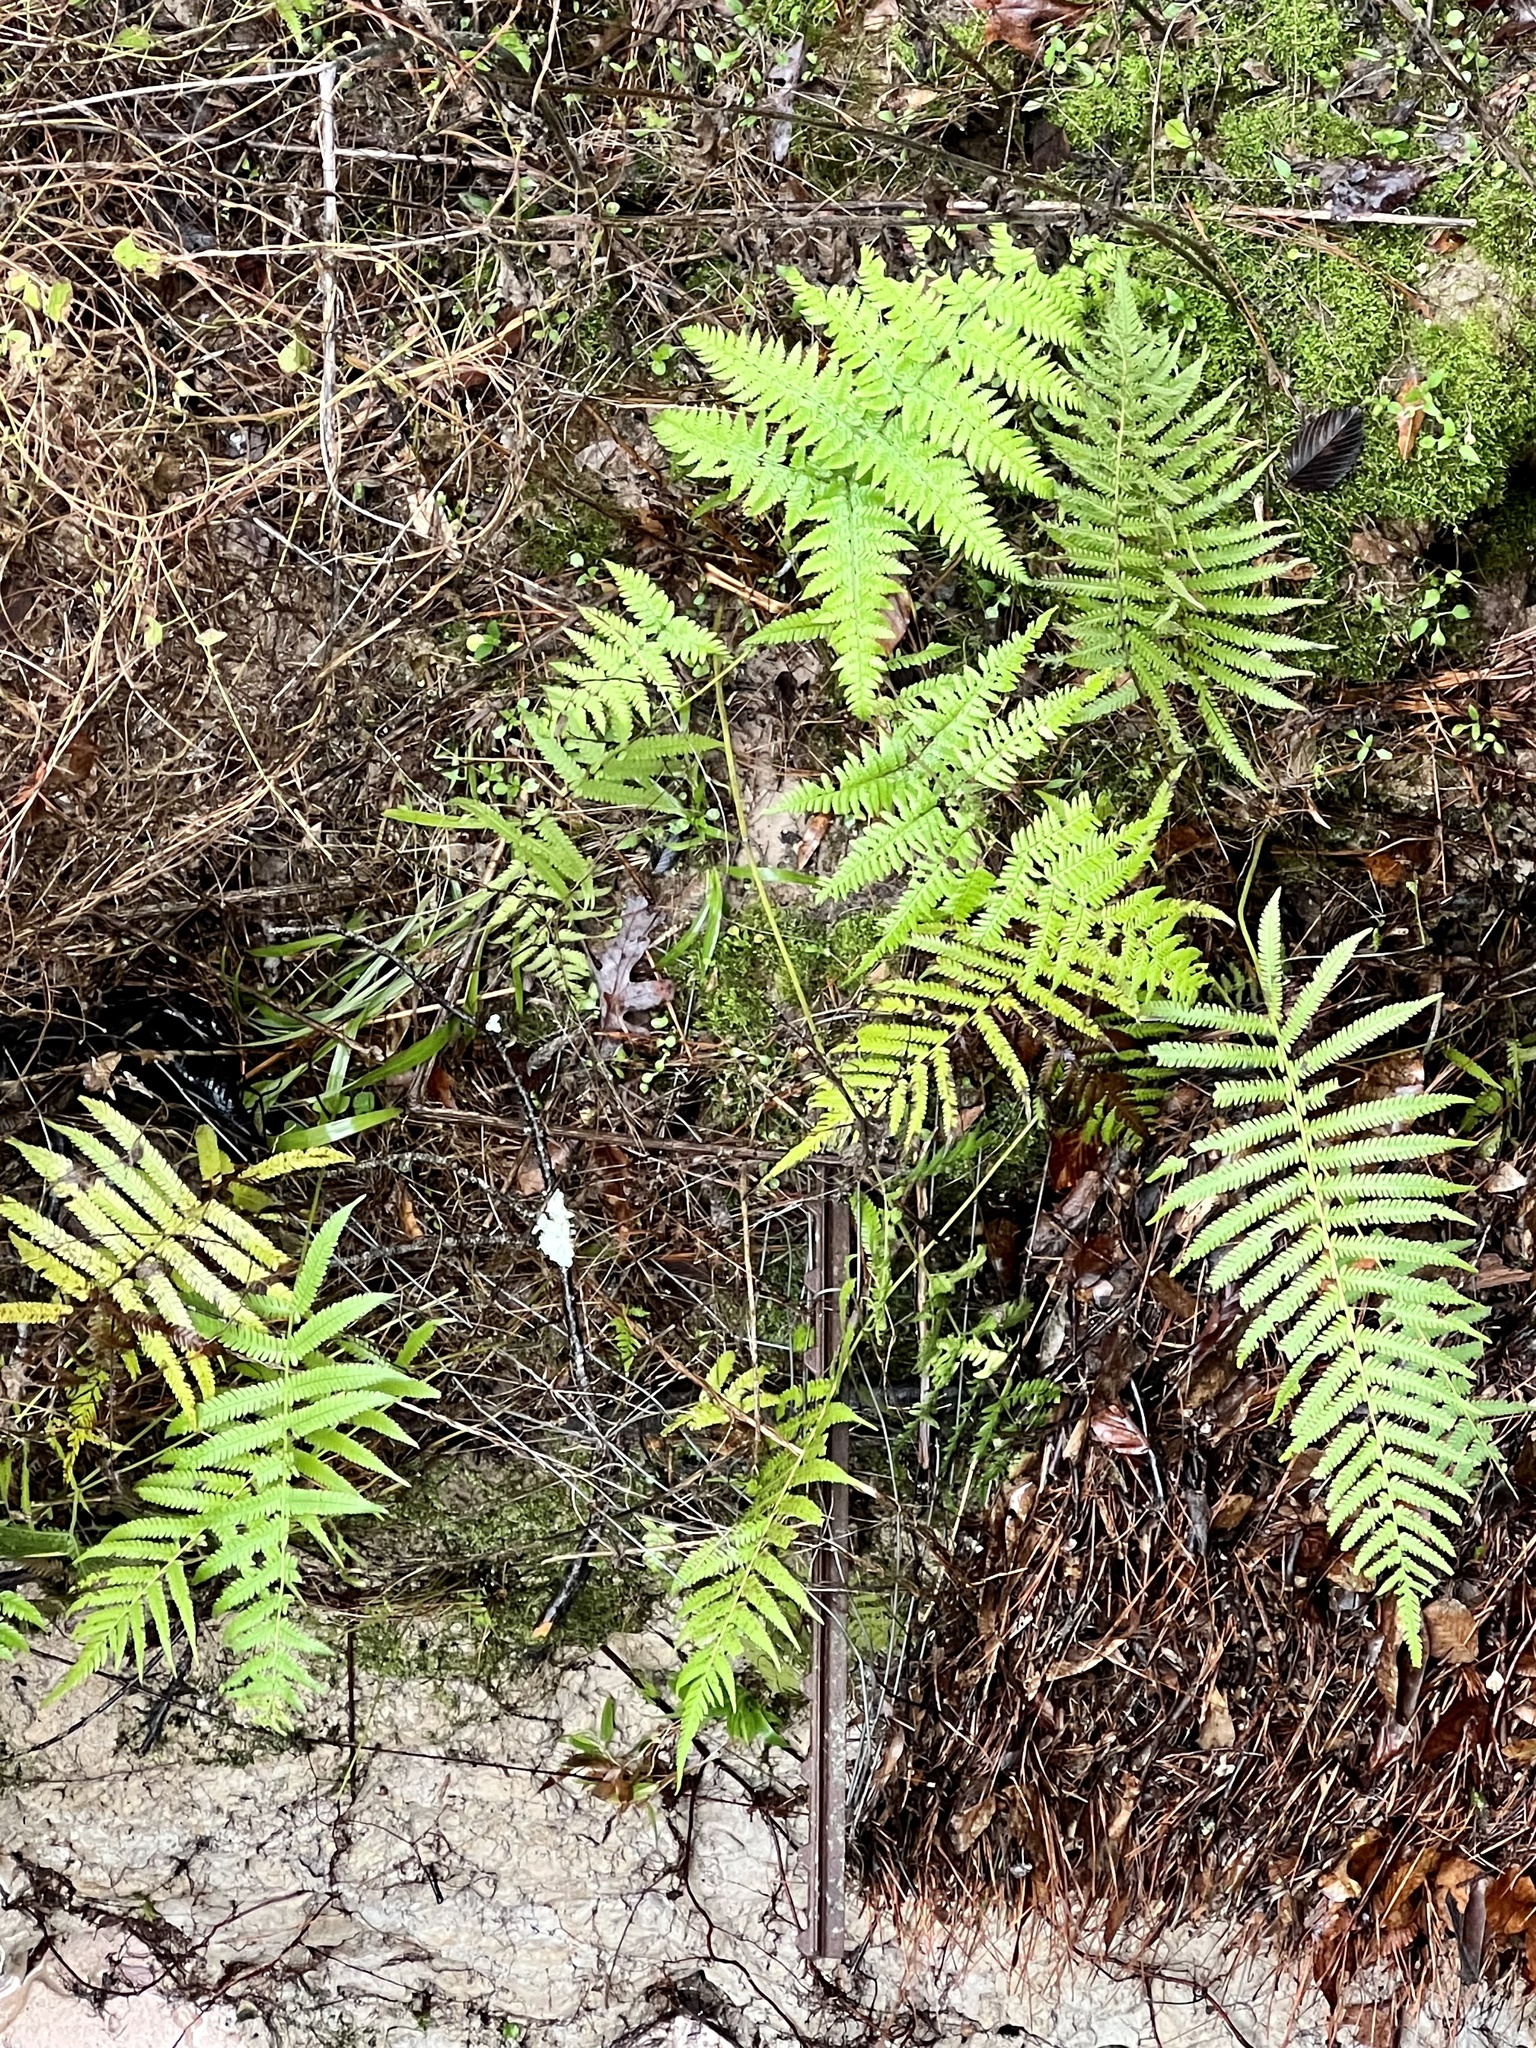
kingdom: Plantae
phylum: Tracheophyta
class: Polypodiopsida
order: Polypodiales
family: Thelypteridaceae
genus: Macrothelypteris
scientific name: Macrothelypteris torresiana
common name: Swordfern
